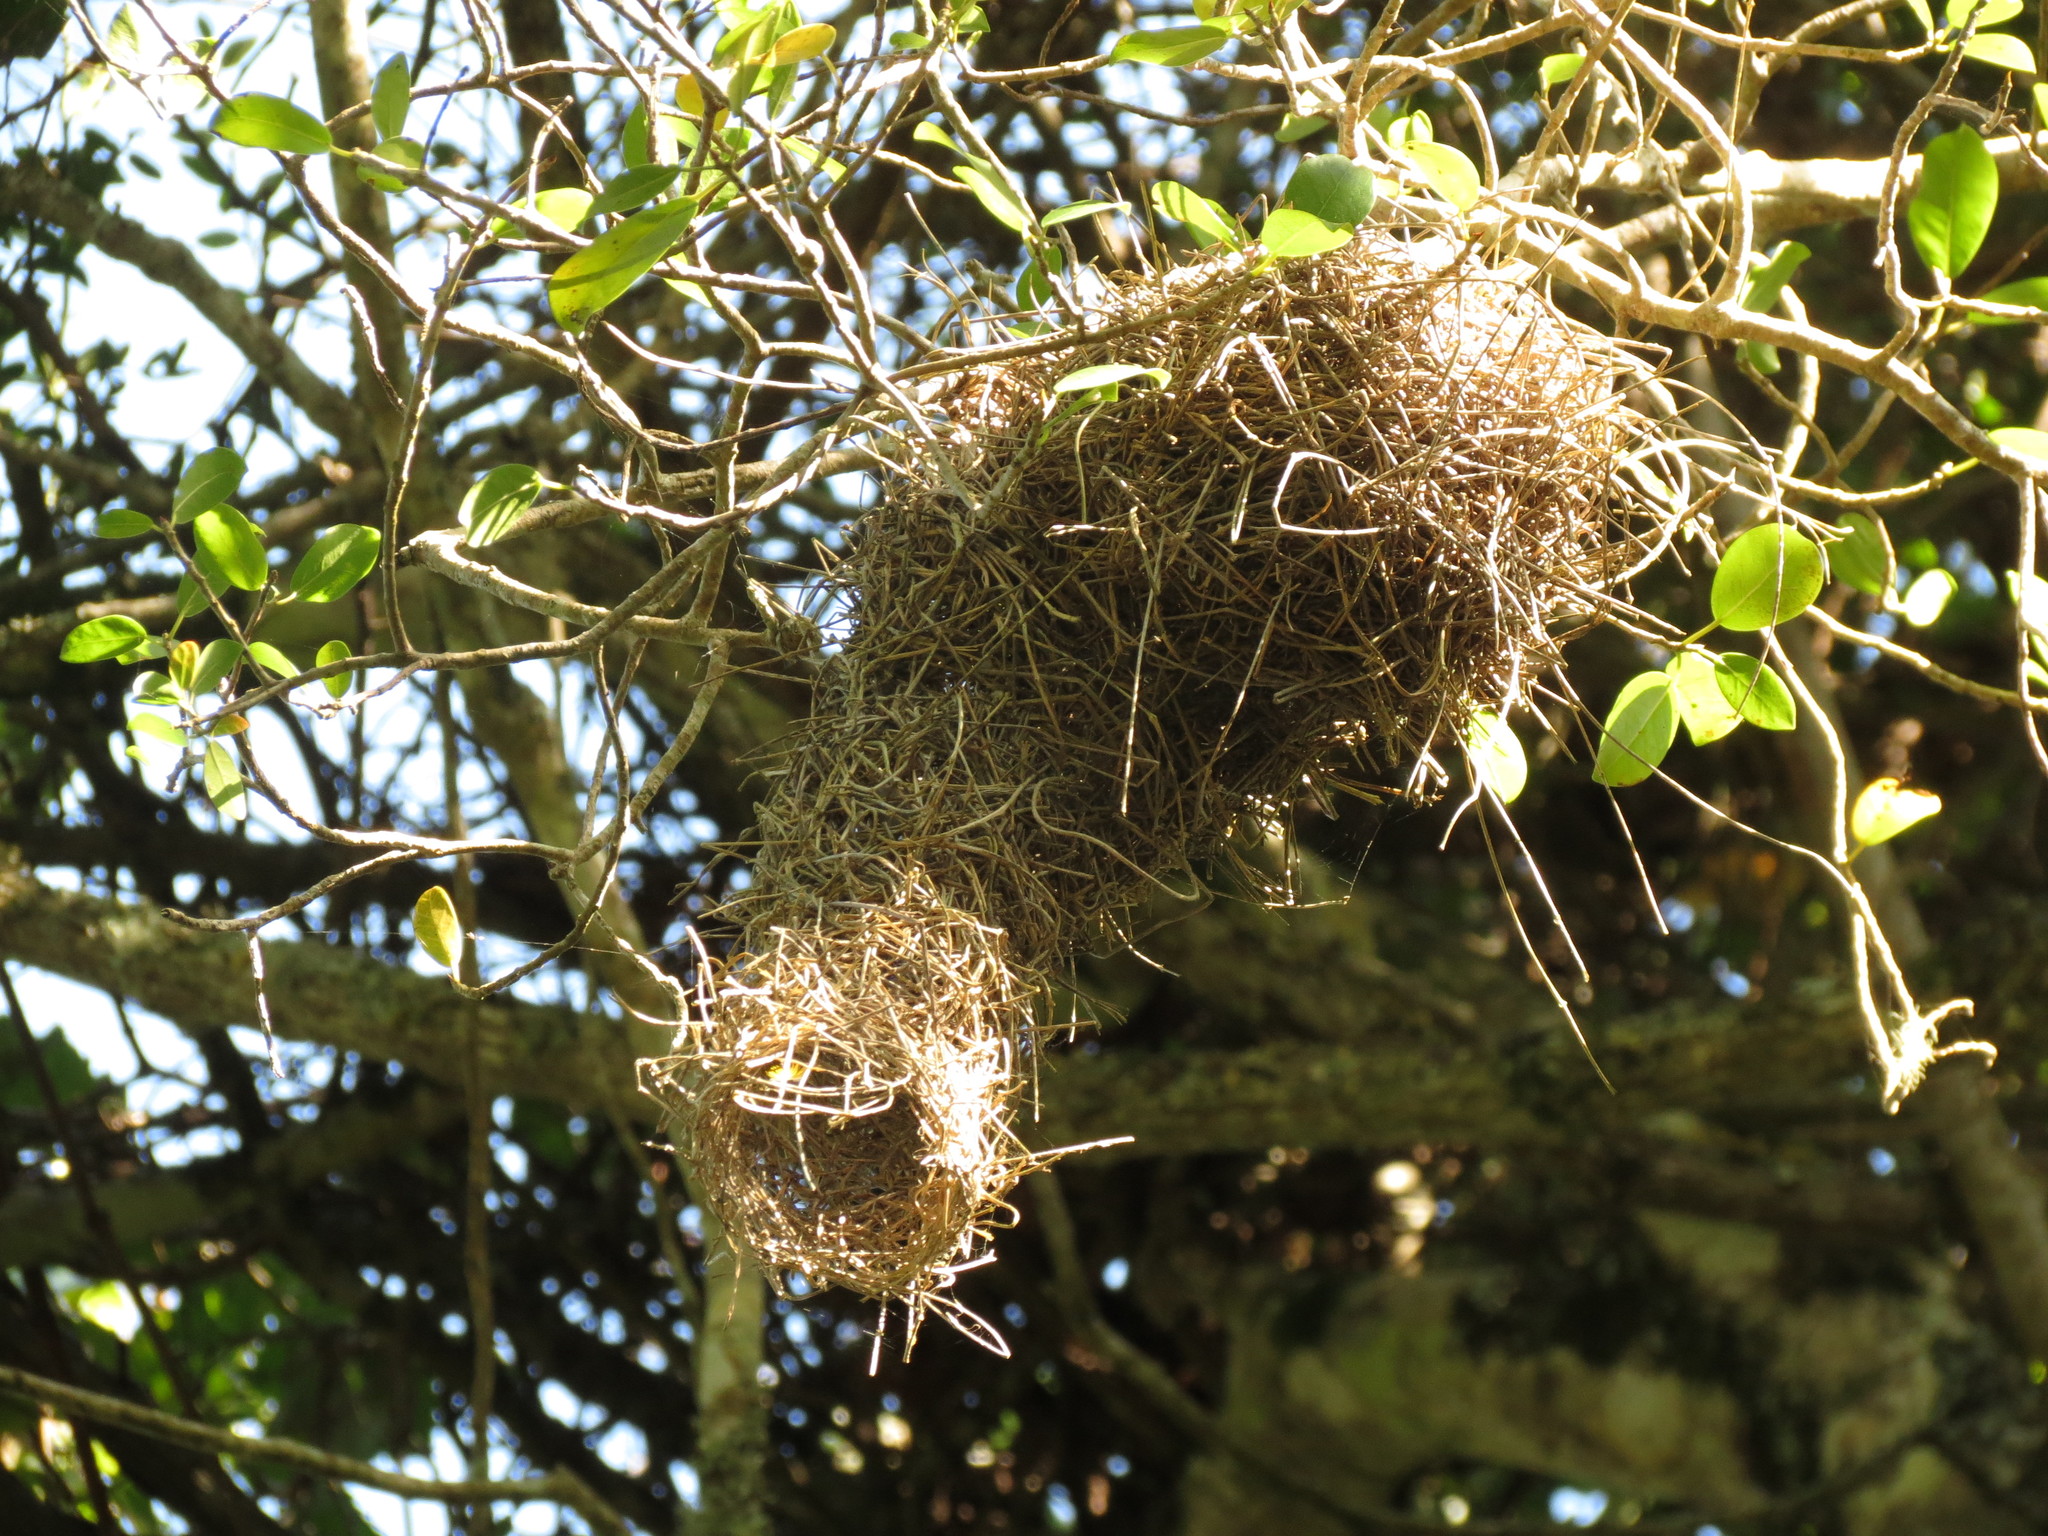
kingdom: Animalia
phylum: Chordata
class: Aves
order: Passeriformes
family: Ploceidae
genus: Ploceus
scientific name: Ploceus bicolor
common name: Dark-backed weaver
